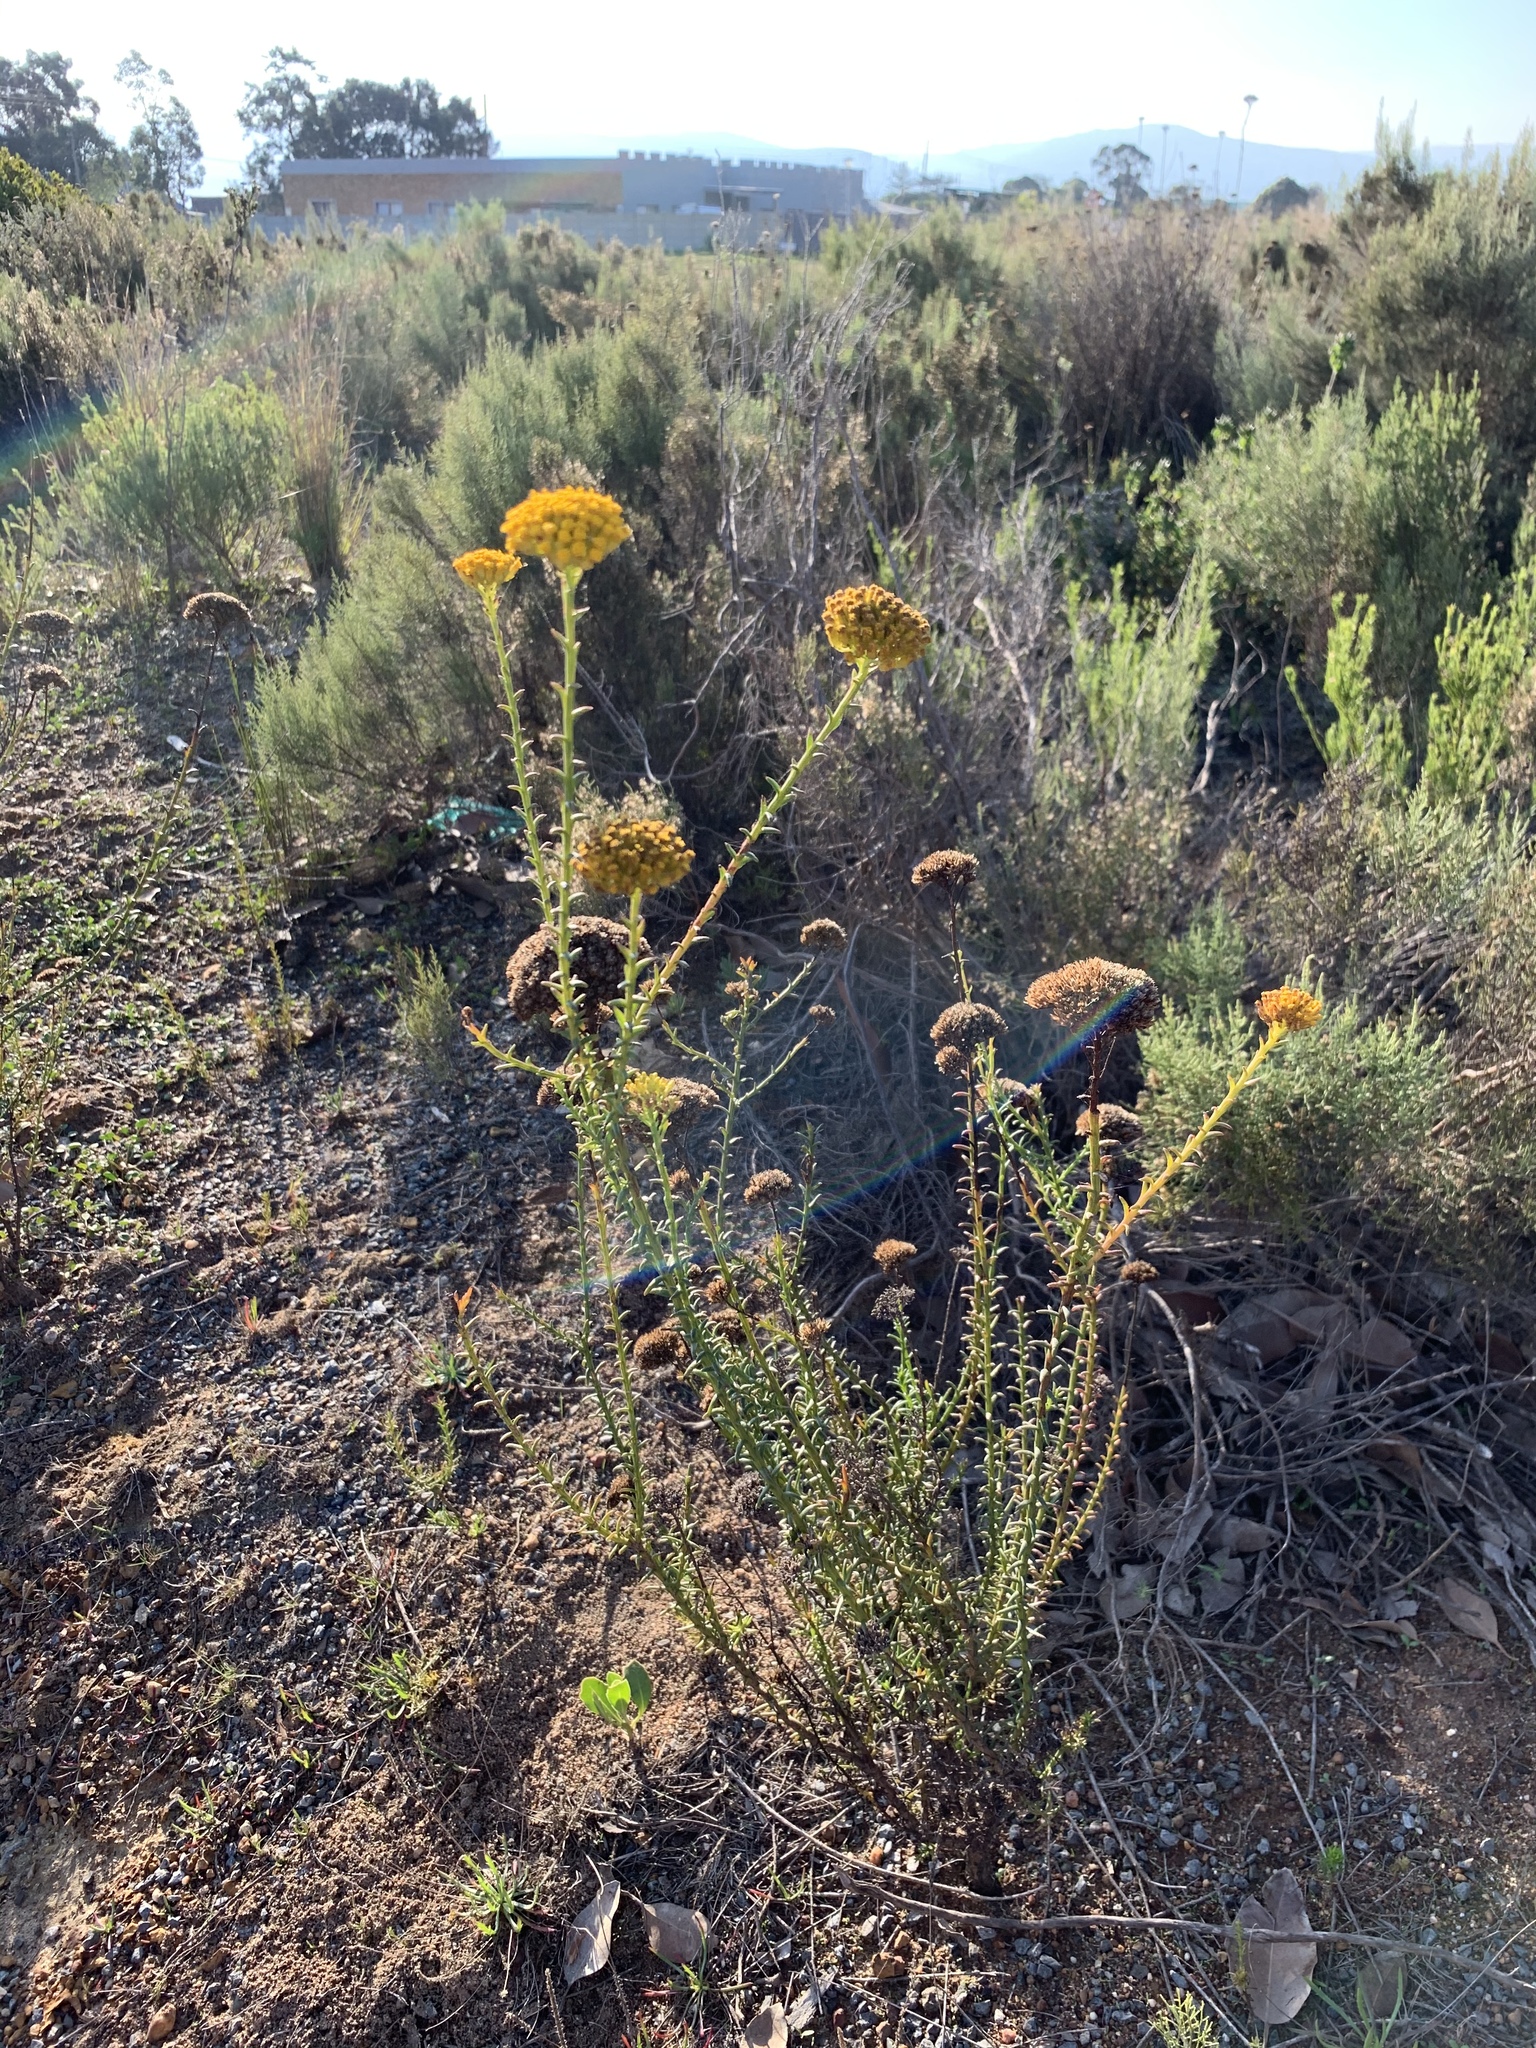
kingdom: Plantae
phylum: Tracheophyta
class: Magnoliopsida
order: Asterales
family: Asteraceae
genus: Athanasia
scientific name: Athanasia trifurcata
